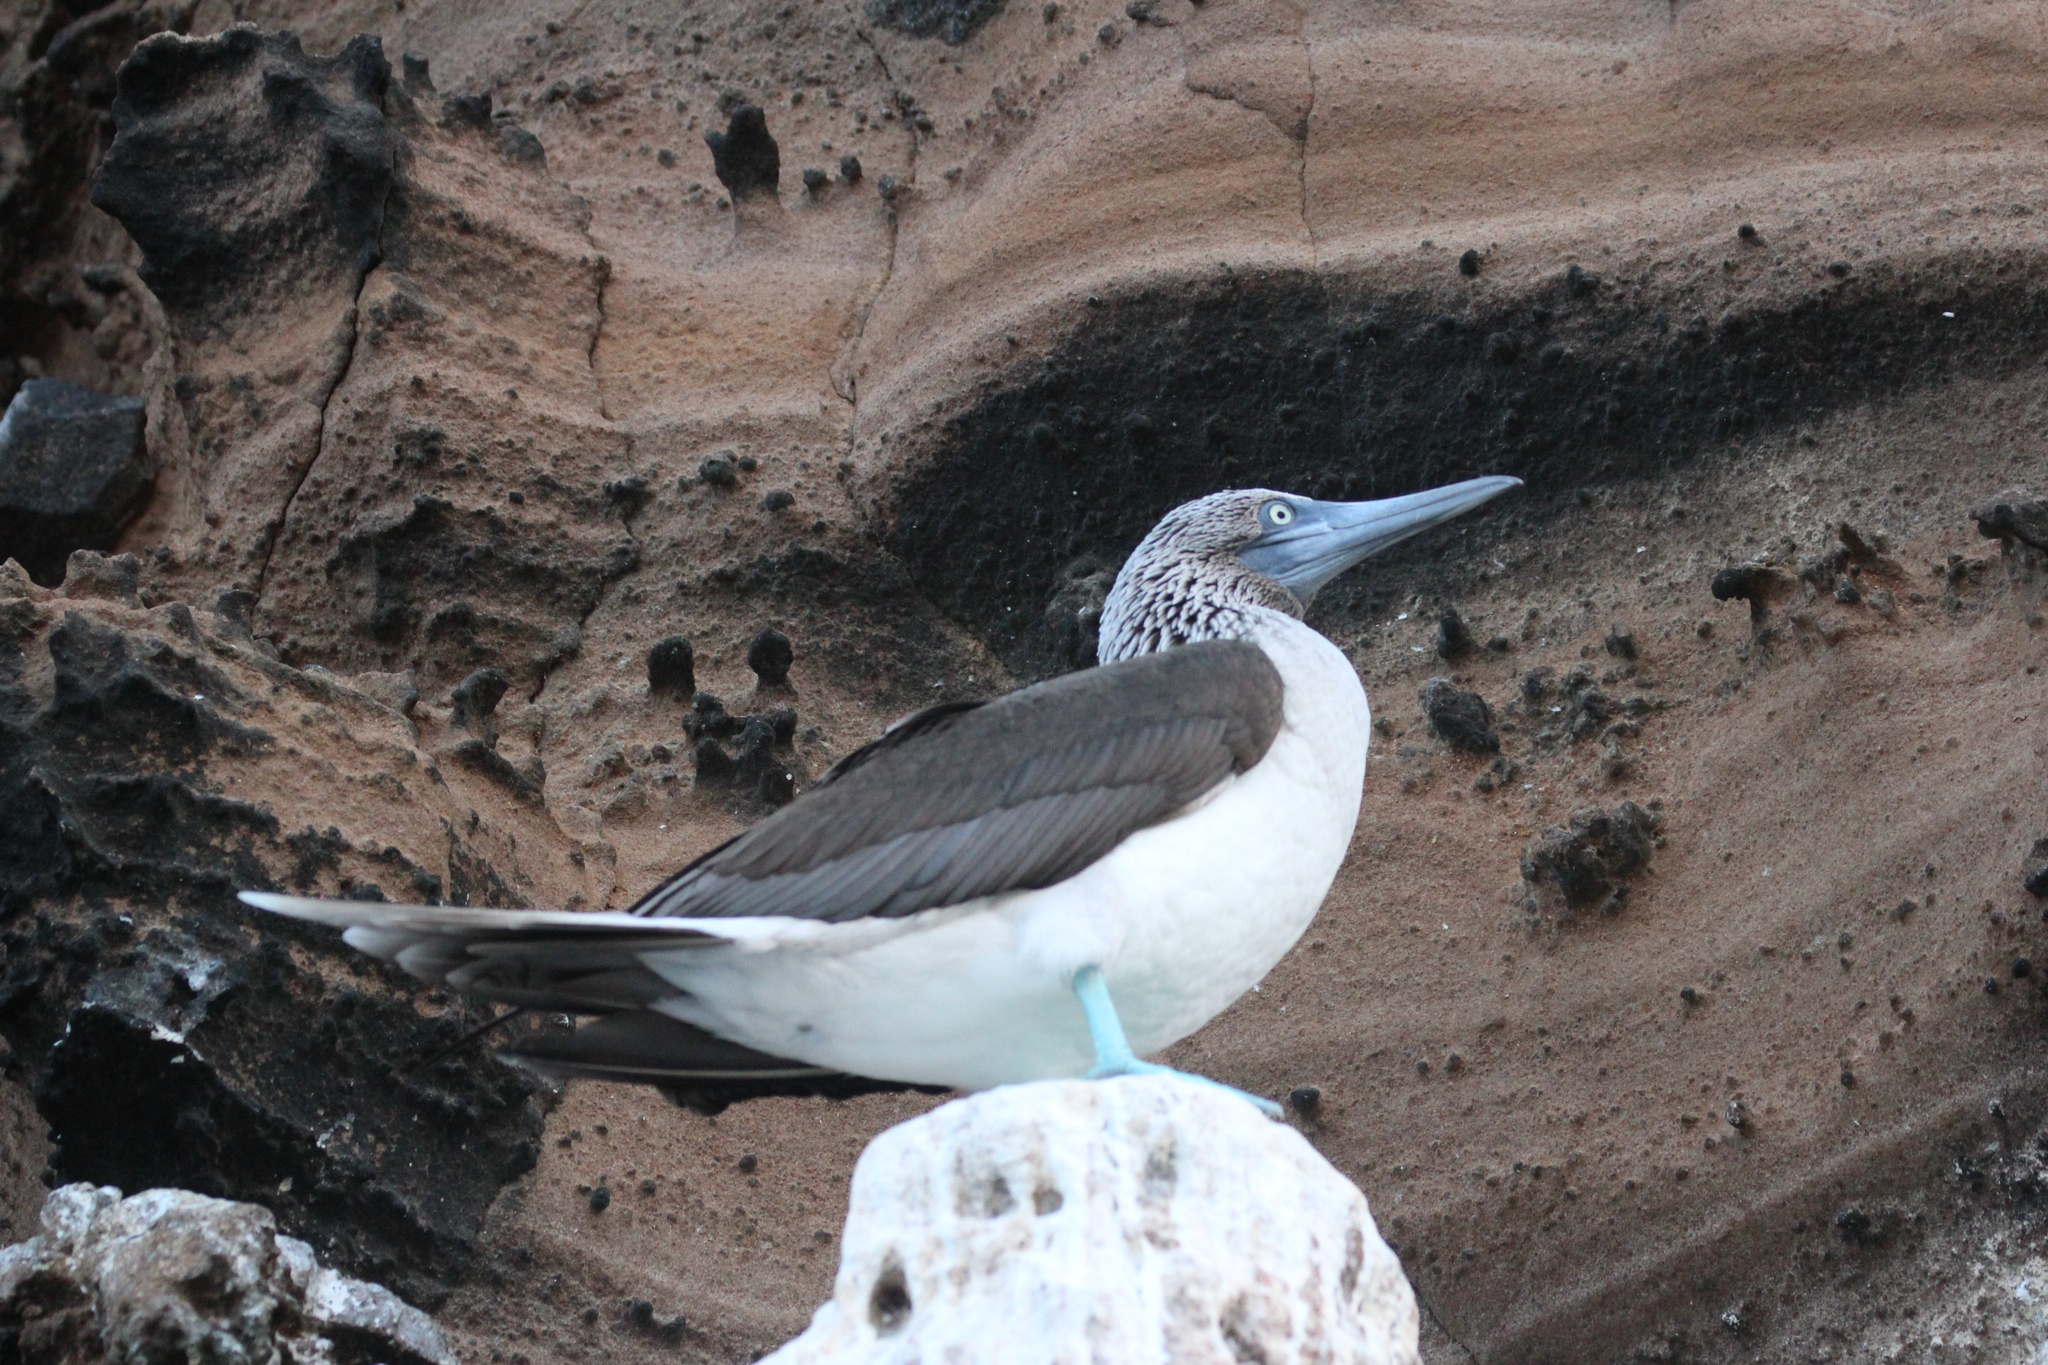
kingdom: Animalia
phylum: Chordata
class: Aves
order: Suliformes
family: Sulidae
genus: Sula
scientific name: Sula nebouxii
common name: Blue-footed booby
